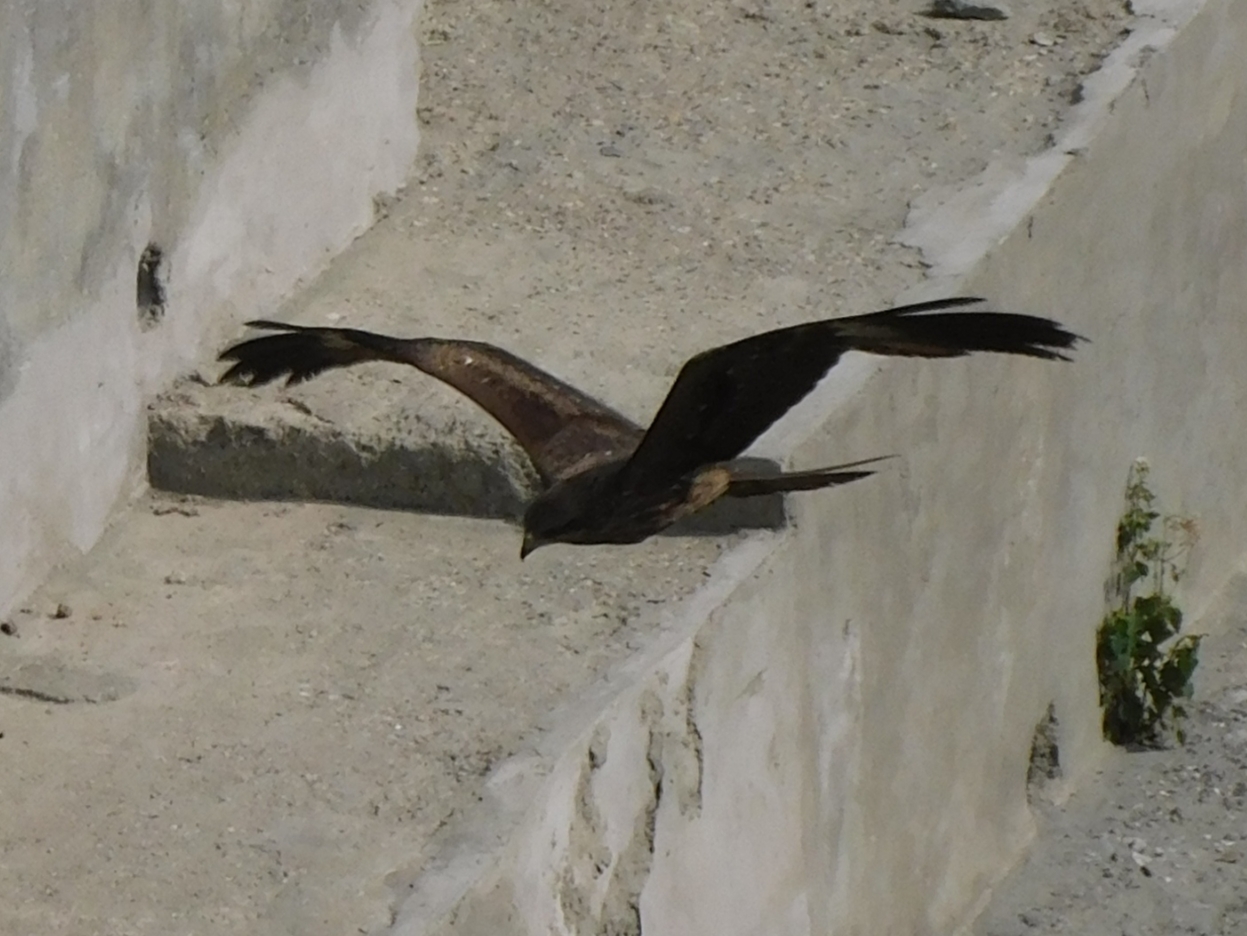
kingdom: Animalia
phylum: Chordata
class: Aves
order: Accipitriformes
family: Accipitridae
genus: Milvus
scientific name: Milvus migrans
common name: Black kite
